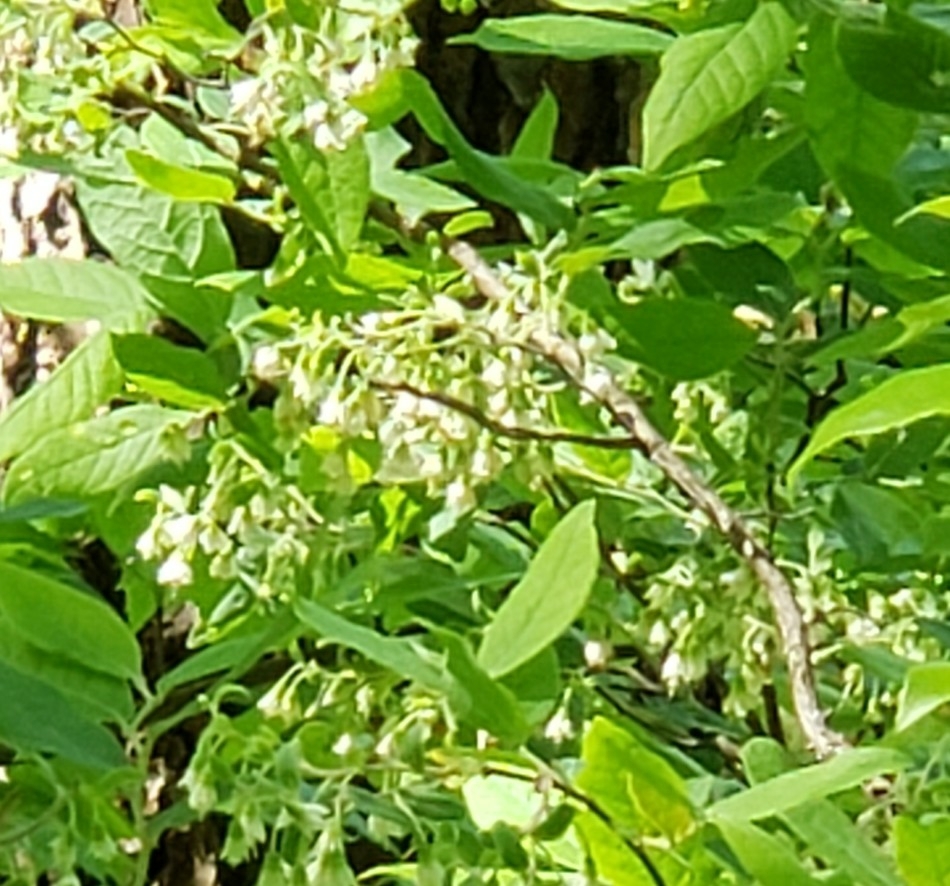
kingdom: Plantae
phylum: Tracheophyta
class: Magnoliopsida
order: Ericales
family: Ericaceae
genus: Vaccinium
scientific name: Vaccinium stamineum
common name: Deerberry
